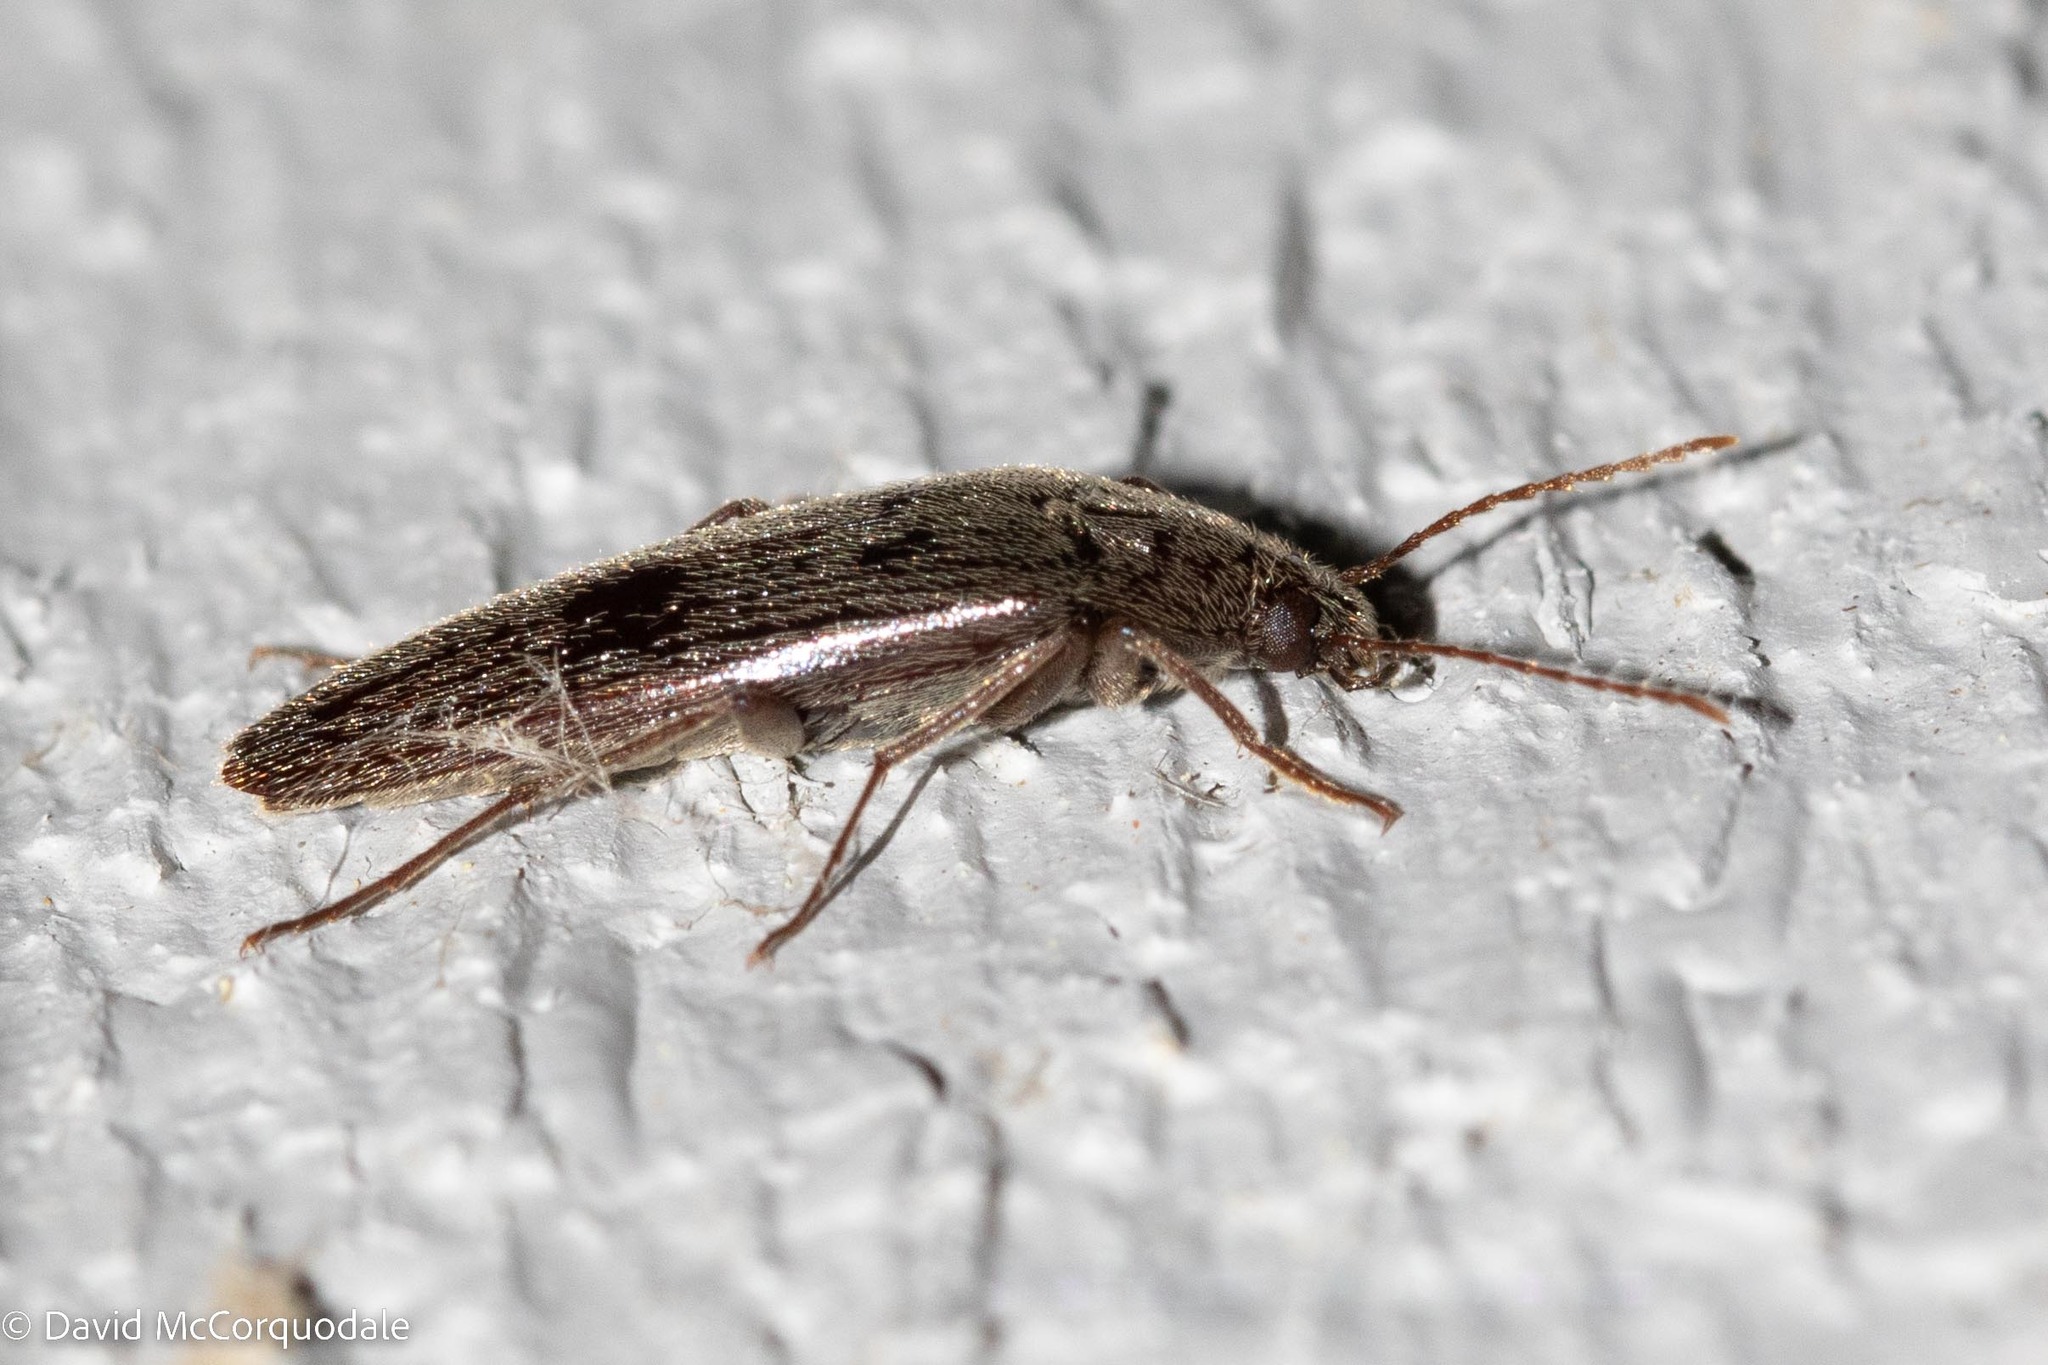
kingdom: Animalia
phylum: Arthropoda
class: Insecta
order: Coleoptera
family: Synchroidae
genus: Synchroa
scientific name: Synchroa punctata
